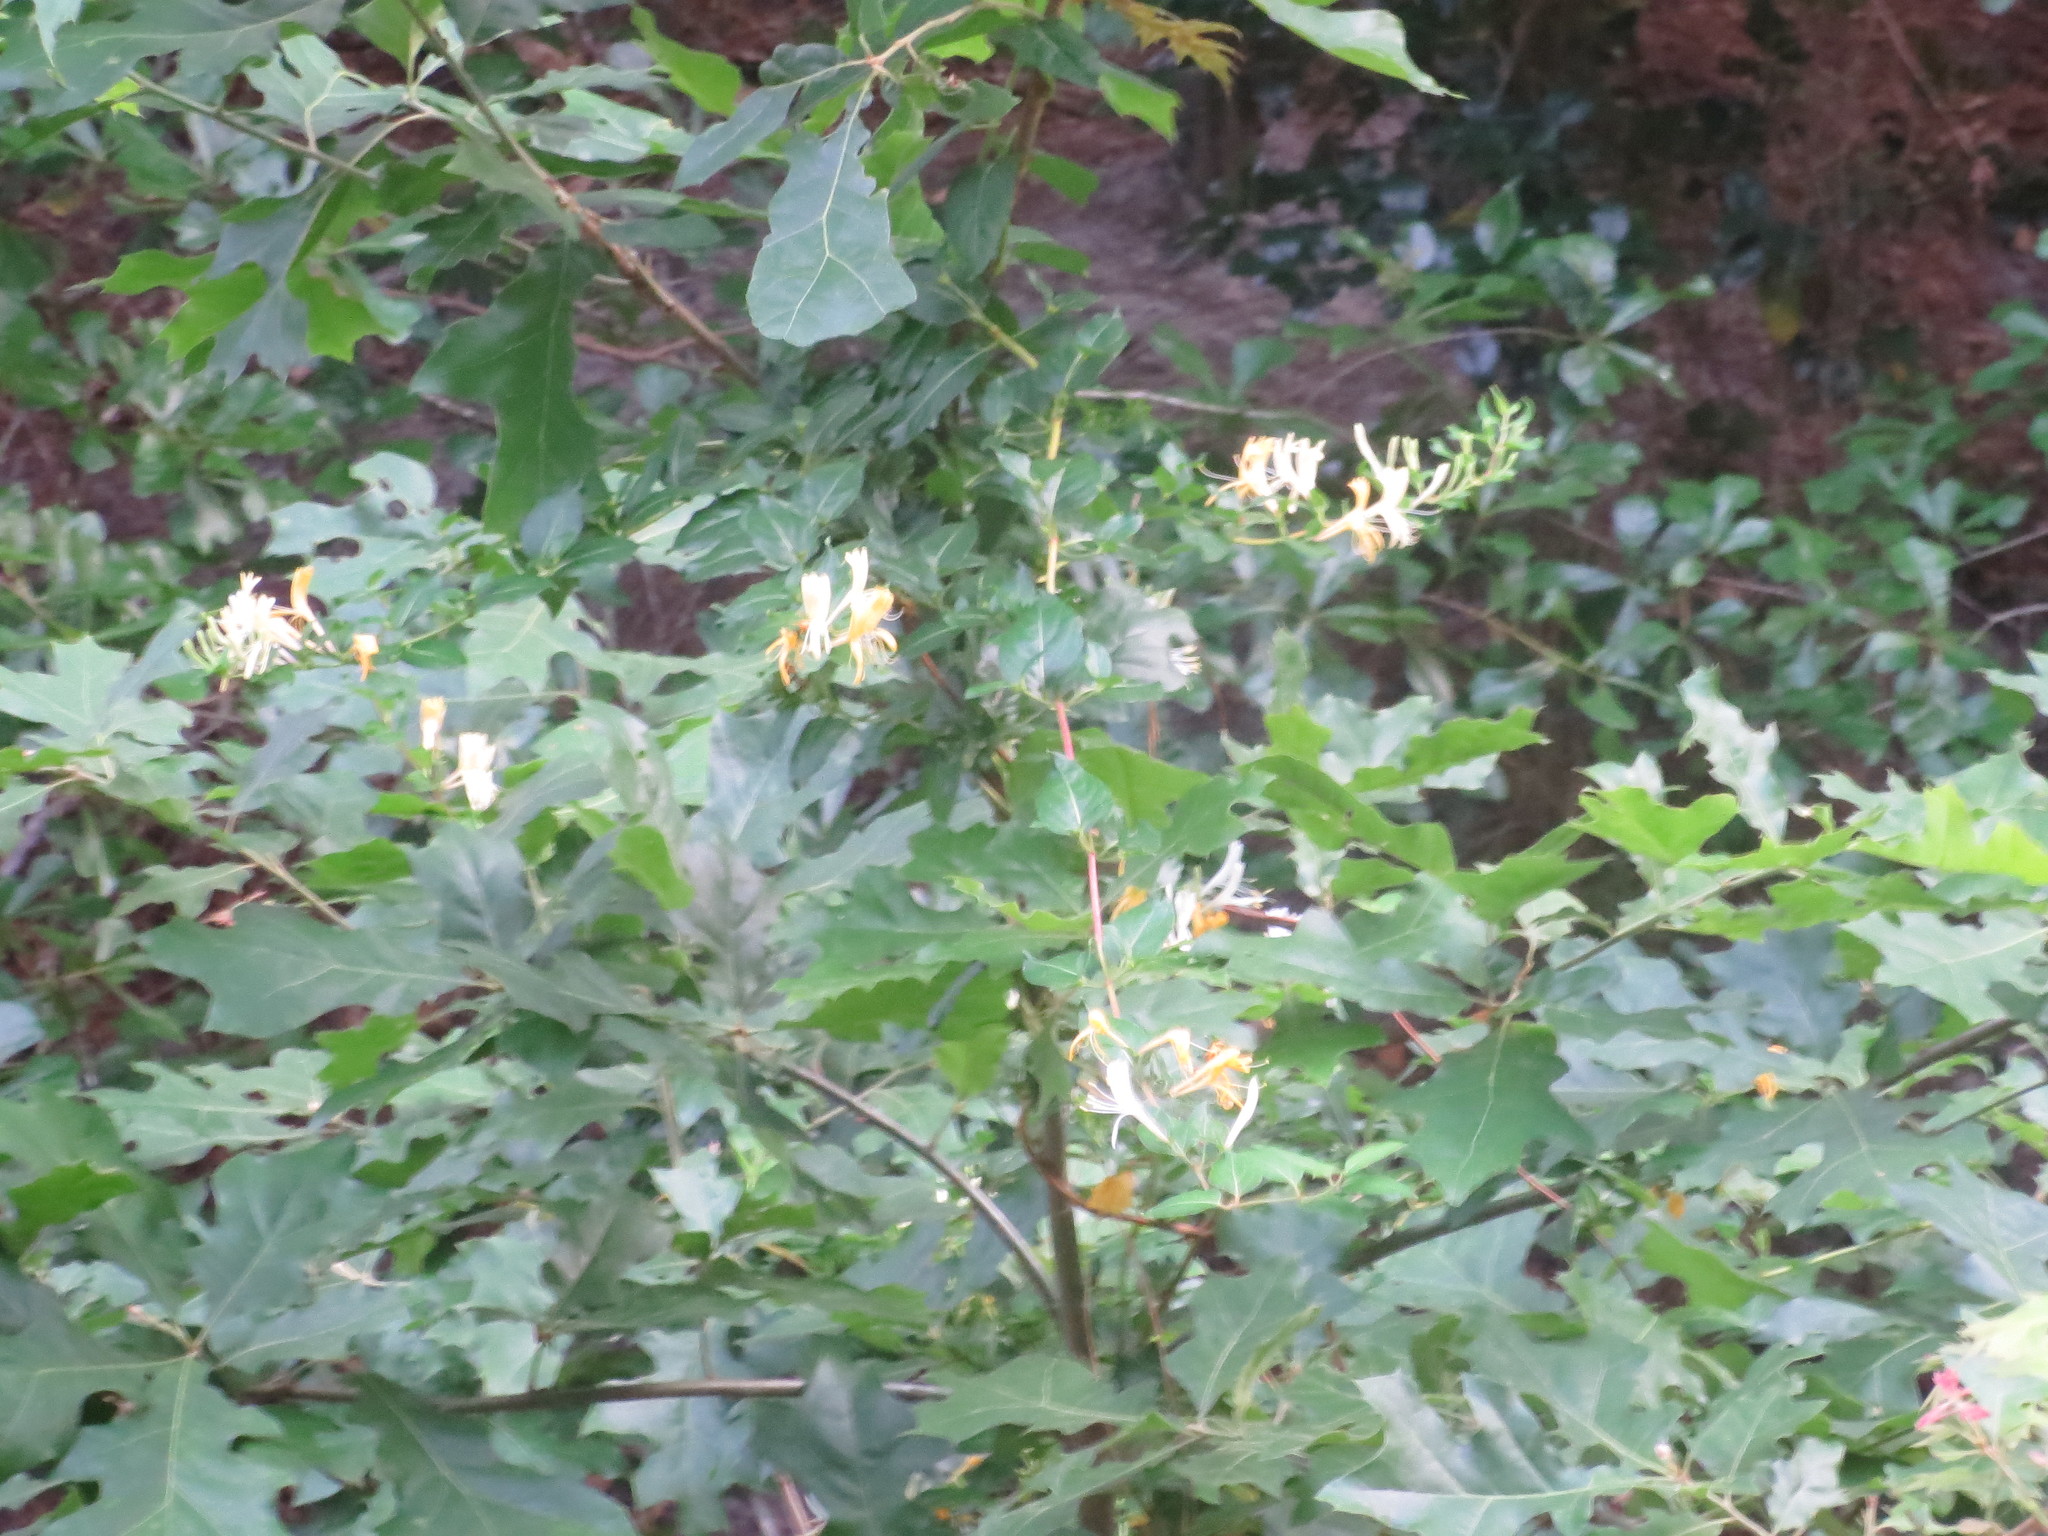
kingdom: Plantae
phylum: Tracheophyta
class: Magnoliopsida
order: Dipsacales
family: Caprifoliaceae
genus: Lonicera
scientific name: Lonicera japonica
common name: Japanese honeysuckle
